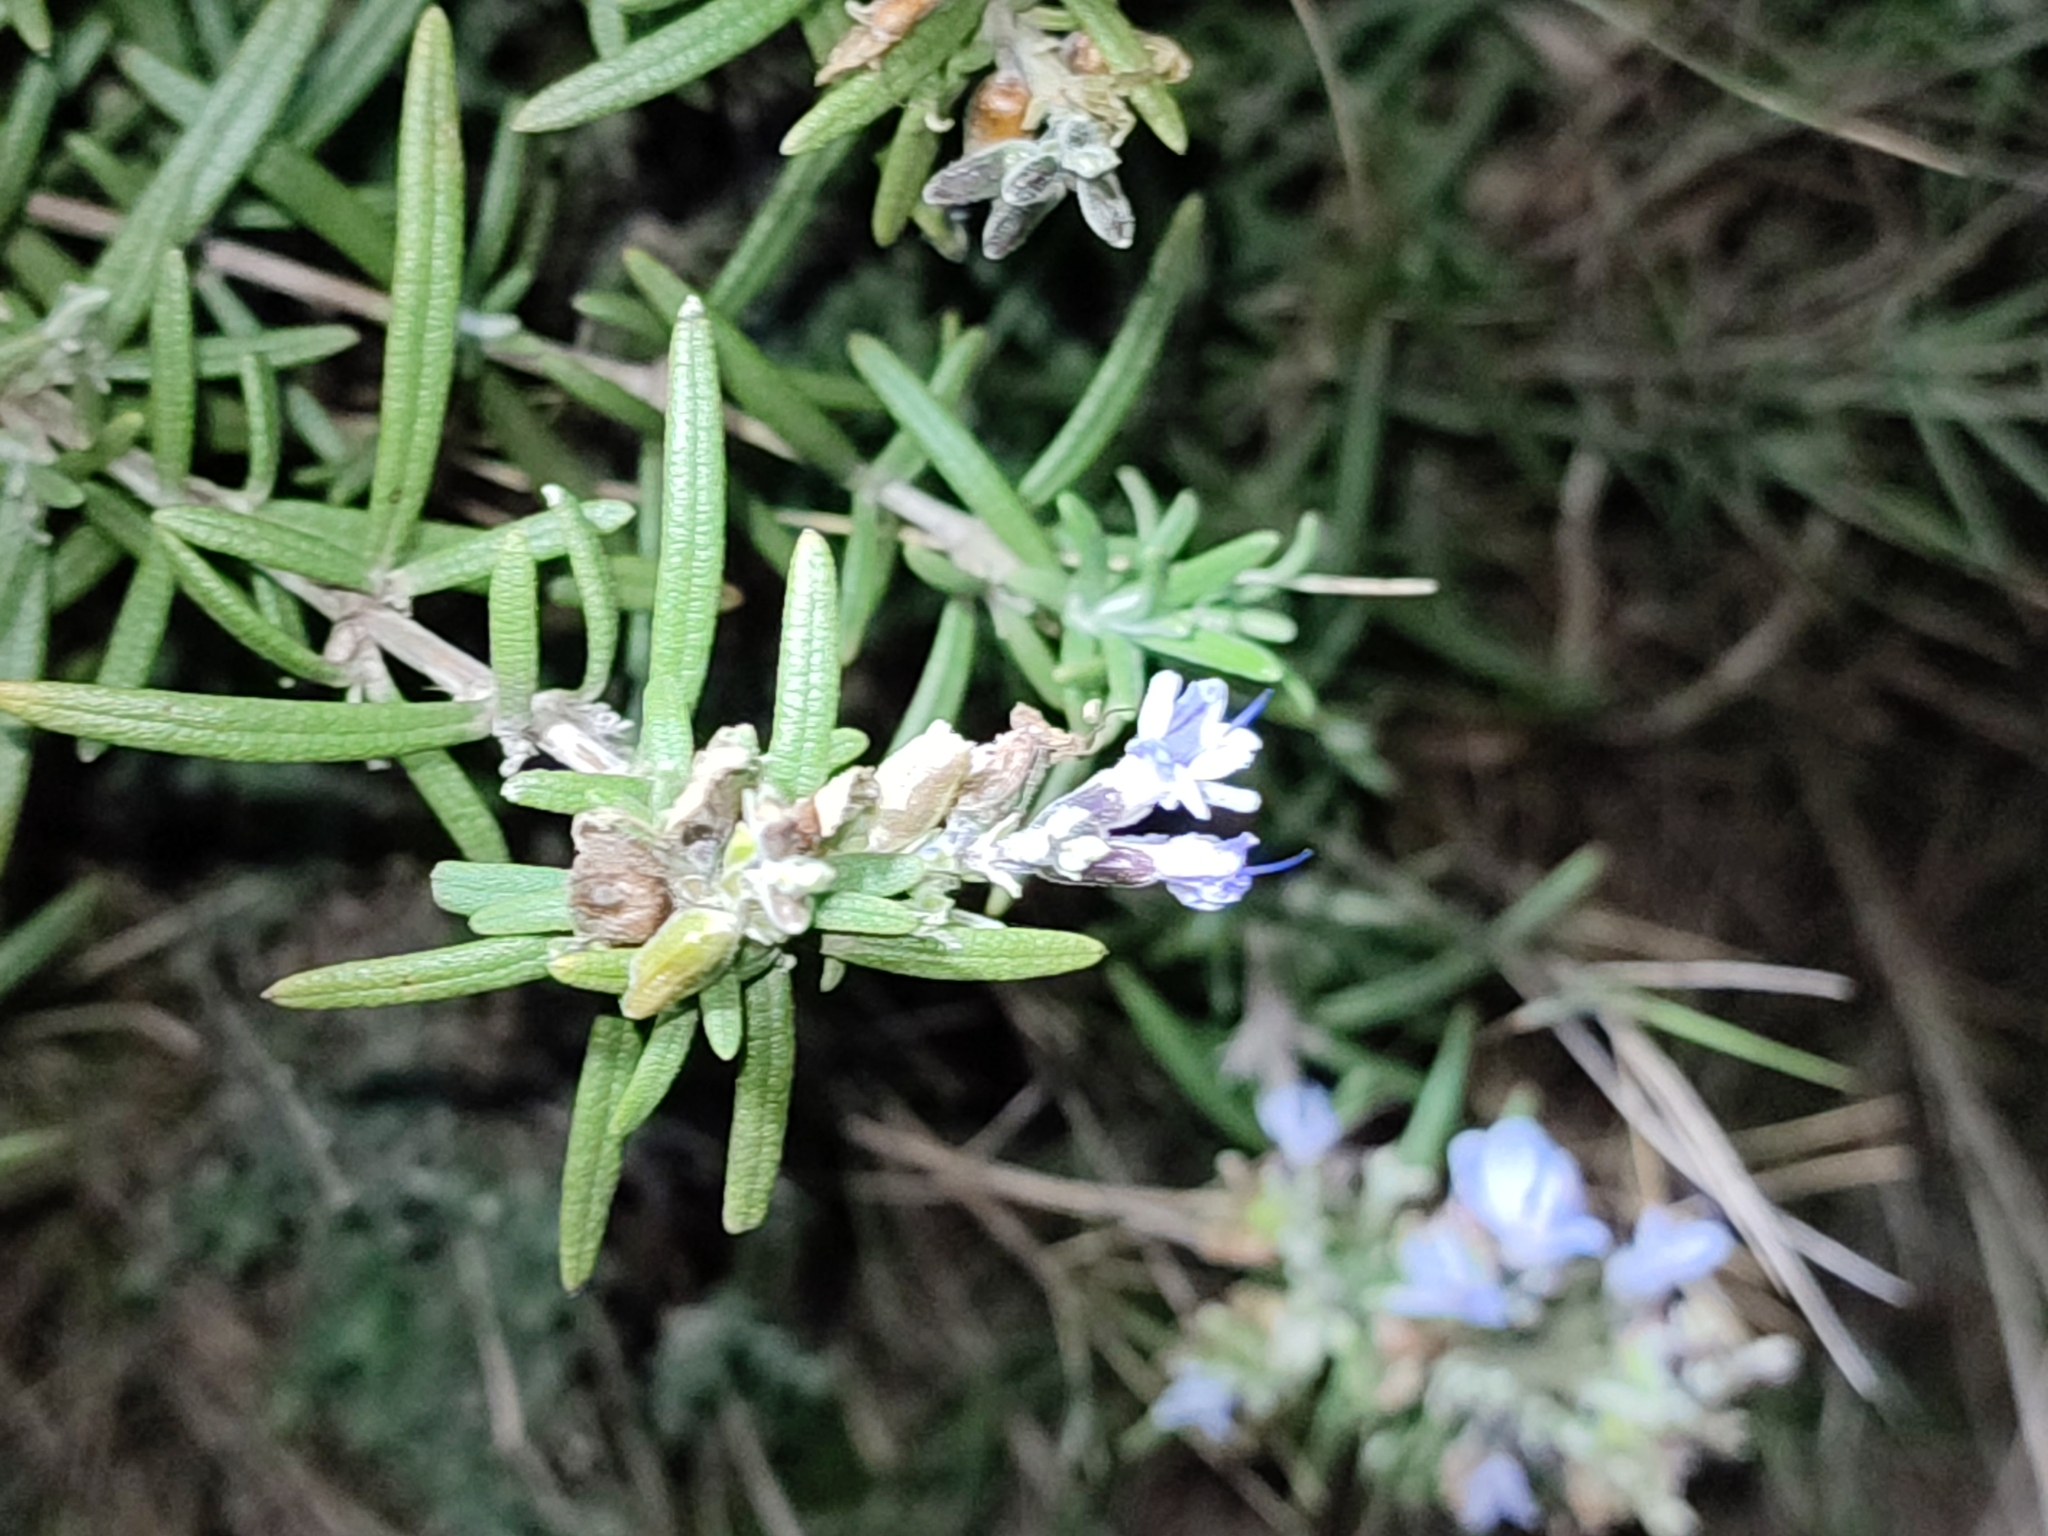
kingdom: Plantae
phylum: Tracheophyta
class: Magnoliopsida
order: Lamiales
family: Lamiaceae
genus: Salvia
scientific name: Salvia rosmarinus
